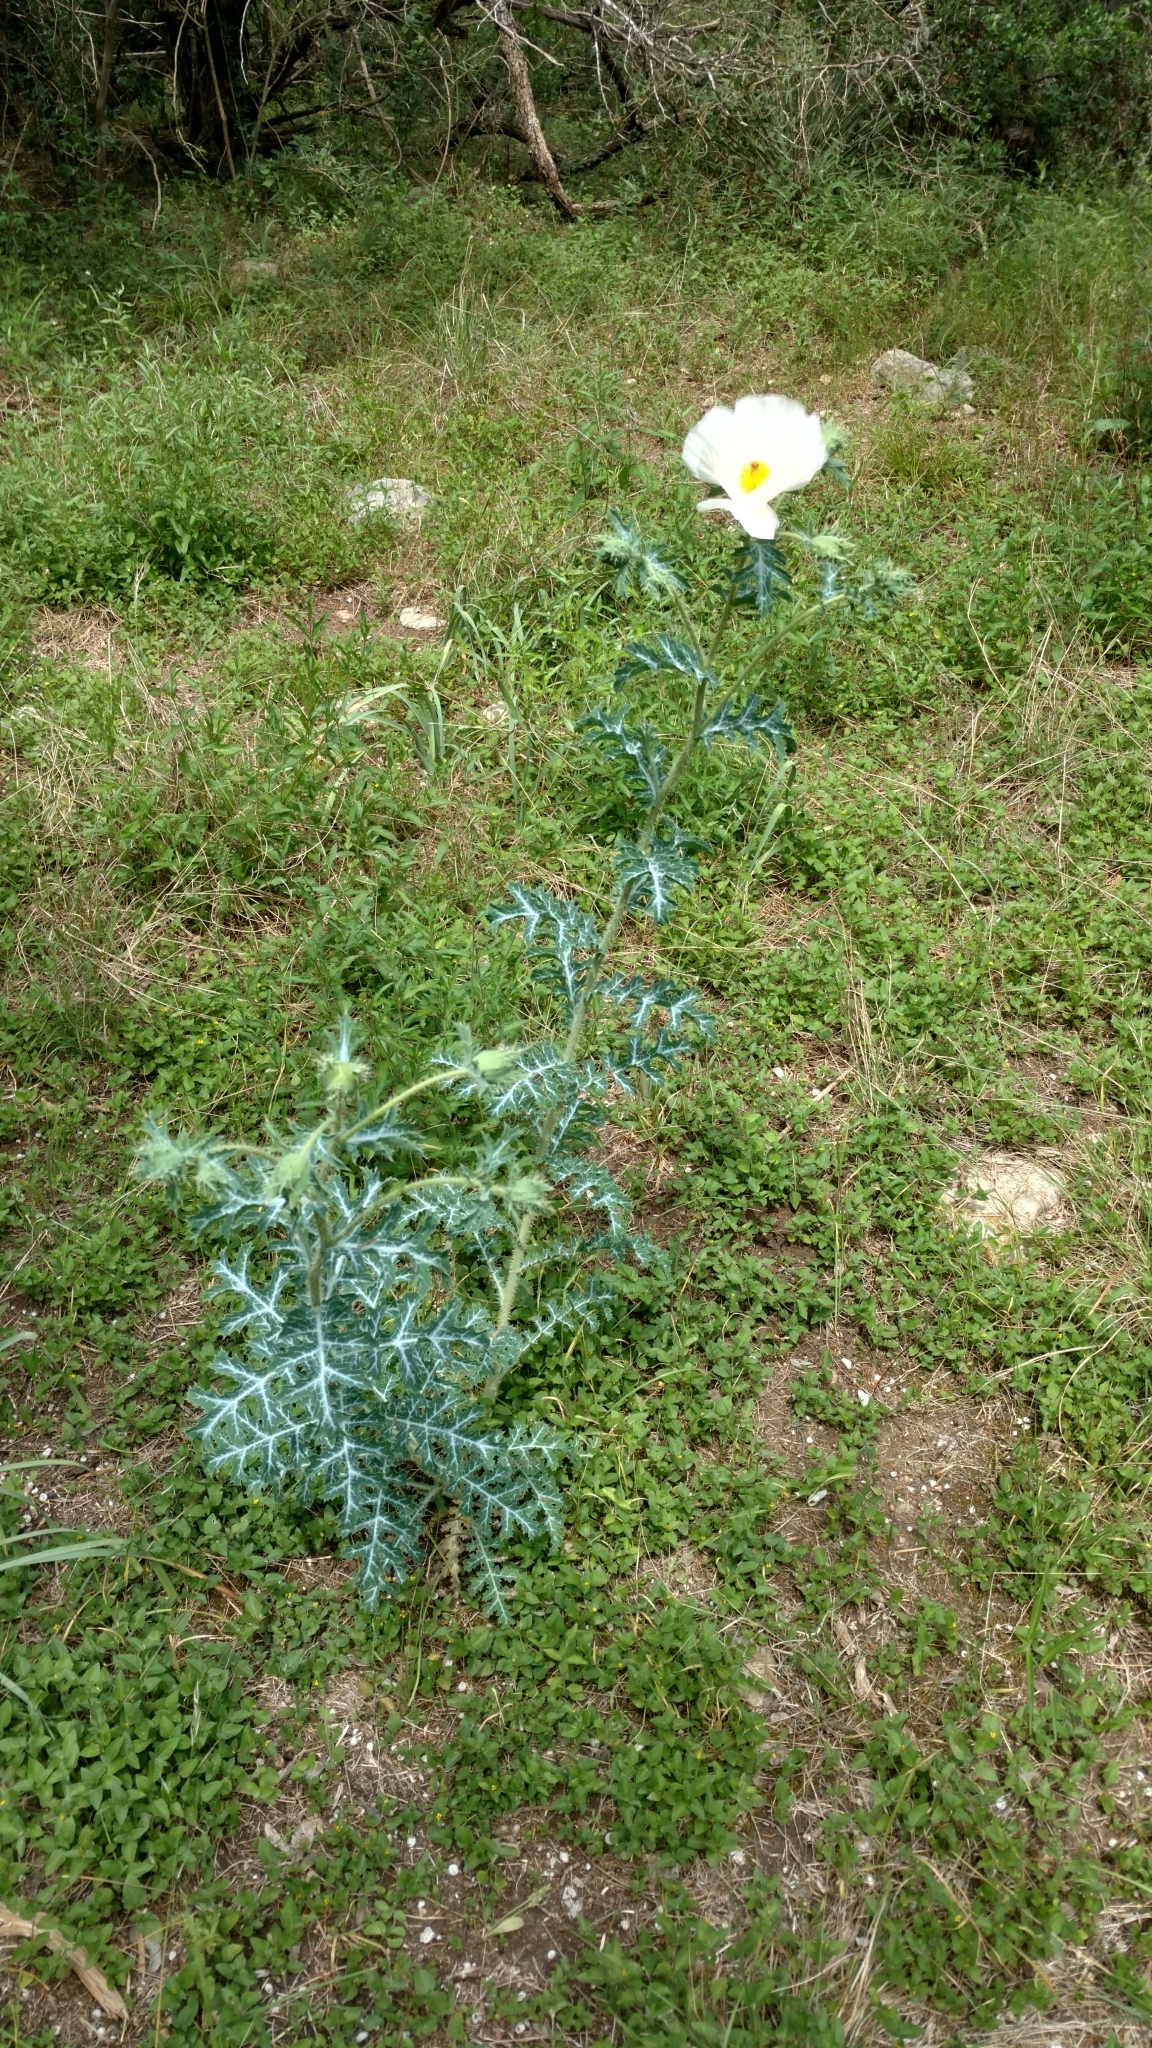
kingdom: Plantae
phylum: Tracheophyta
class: Magnoliopsida
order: Ranunculales
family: Papaveraceae
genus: Argemone
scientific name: Argemone albiflora
